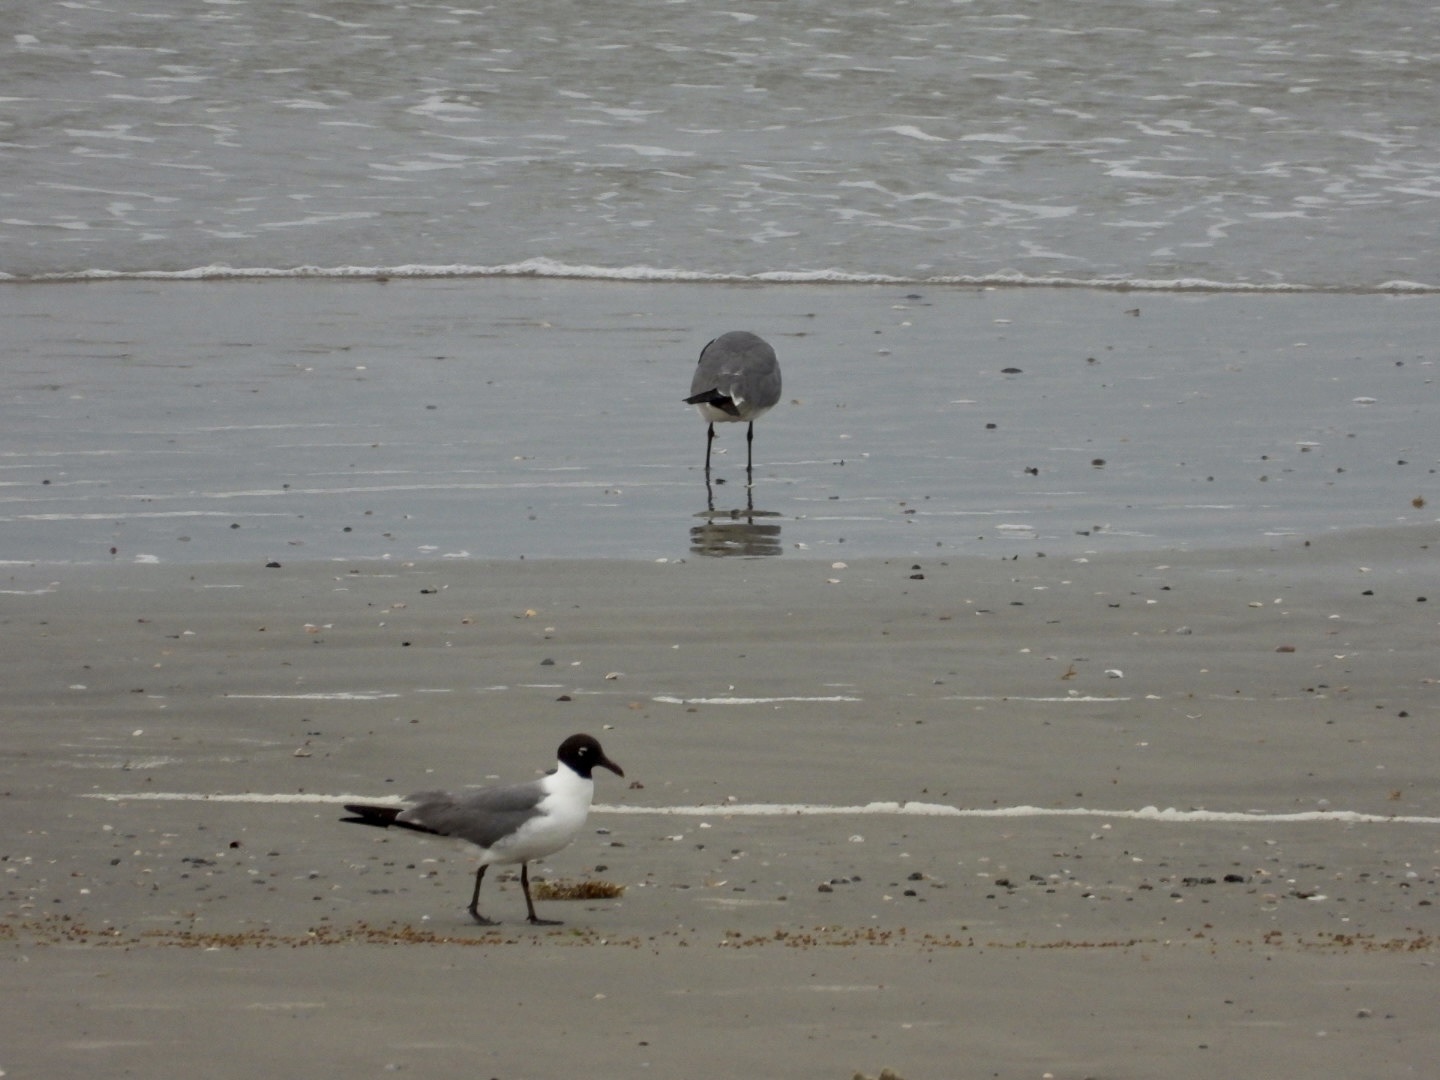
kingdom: Animalia
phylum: Chordata
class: Aves
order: Charadriiformes
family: Laridae
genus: Leucophaeus
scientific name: Leucophaeus atricilla
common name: Laughing gull
